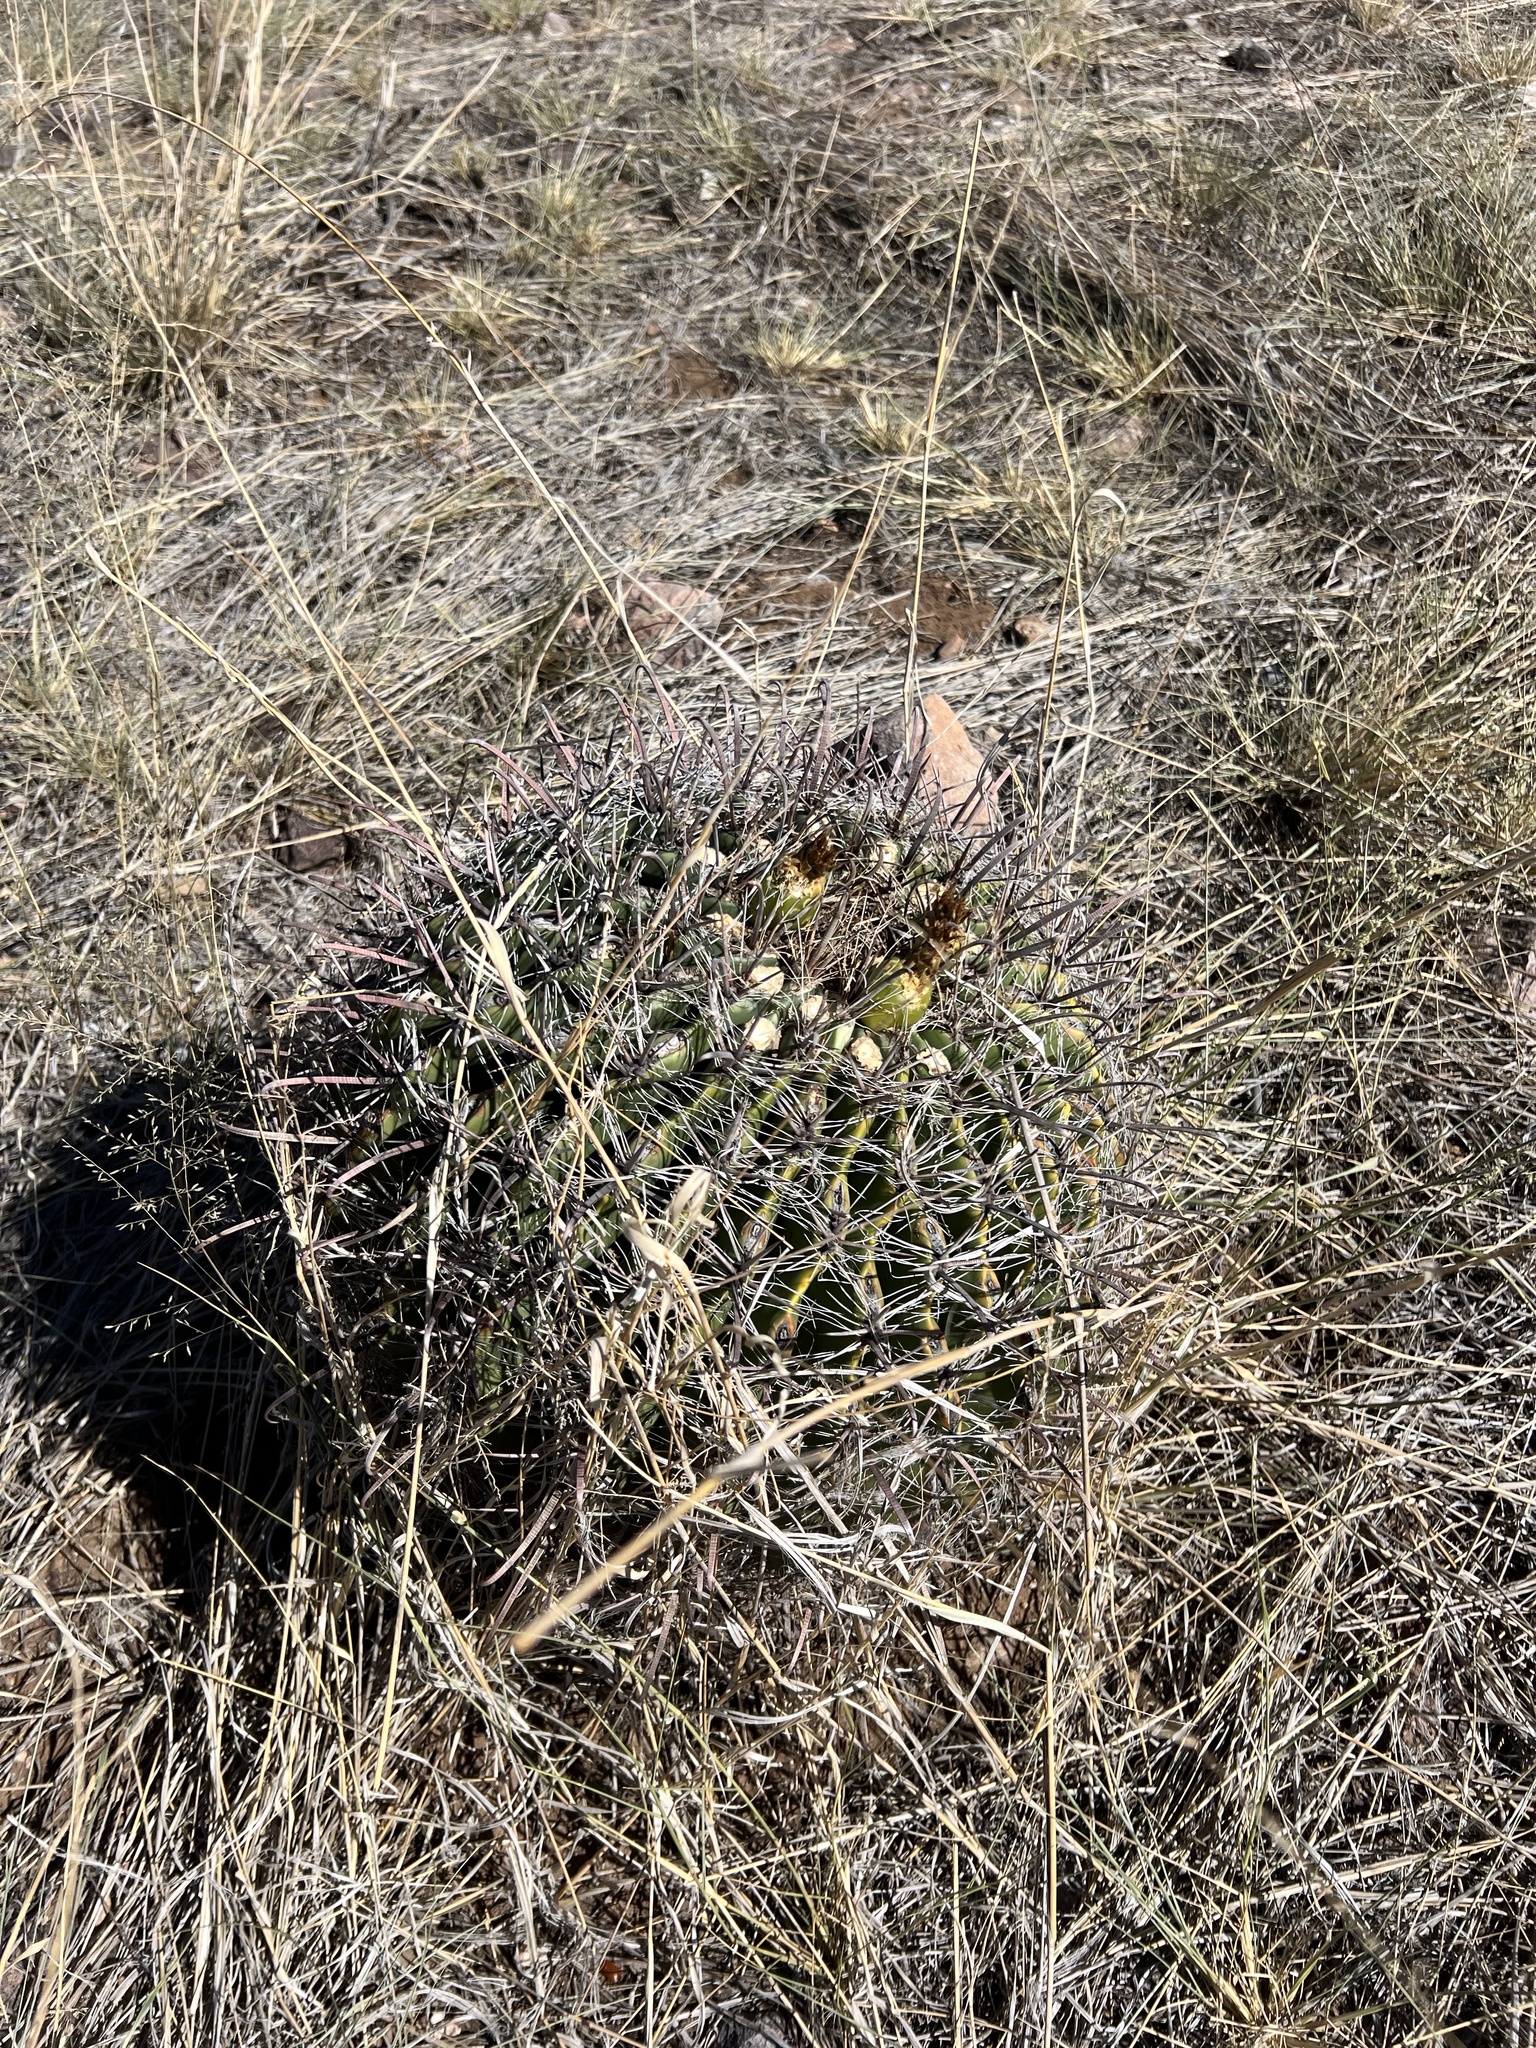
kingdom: Plantae
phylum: Tracheophyta
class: Magnoliopsida
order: Caryophyllales
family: Cactaceae
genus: Ferocactus
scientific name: Ferocactus wislizeni
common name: Candy barrel cactus
